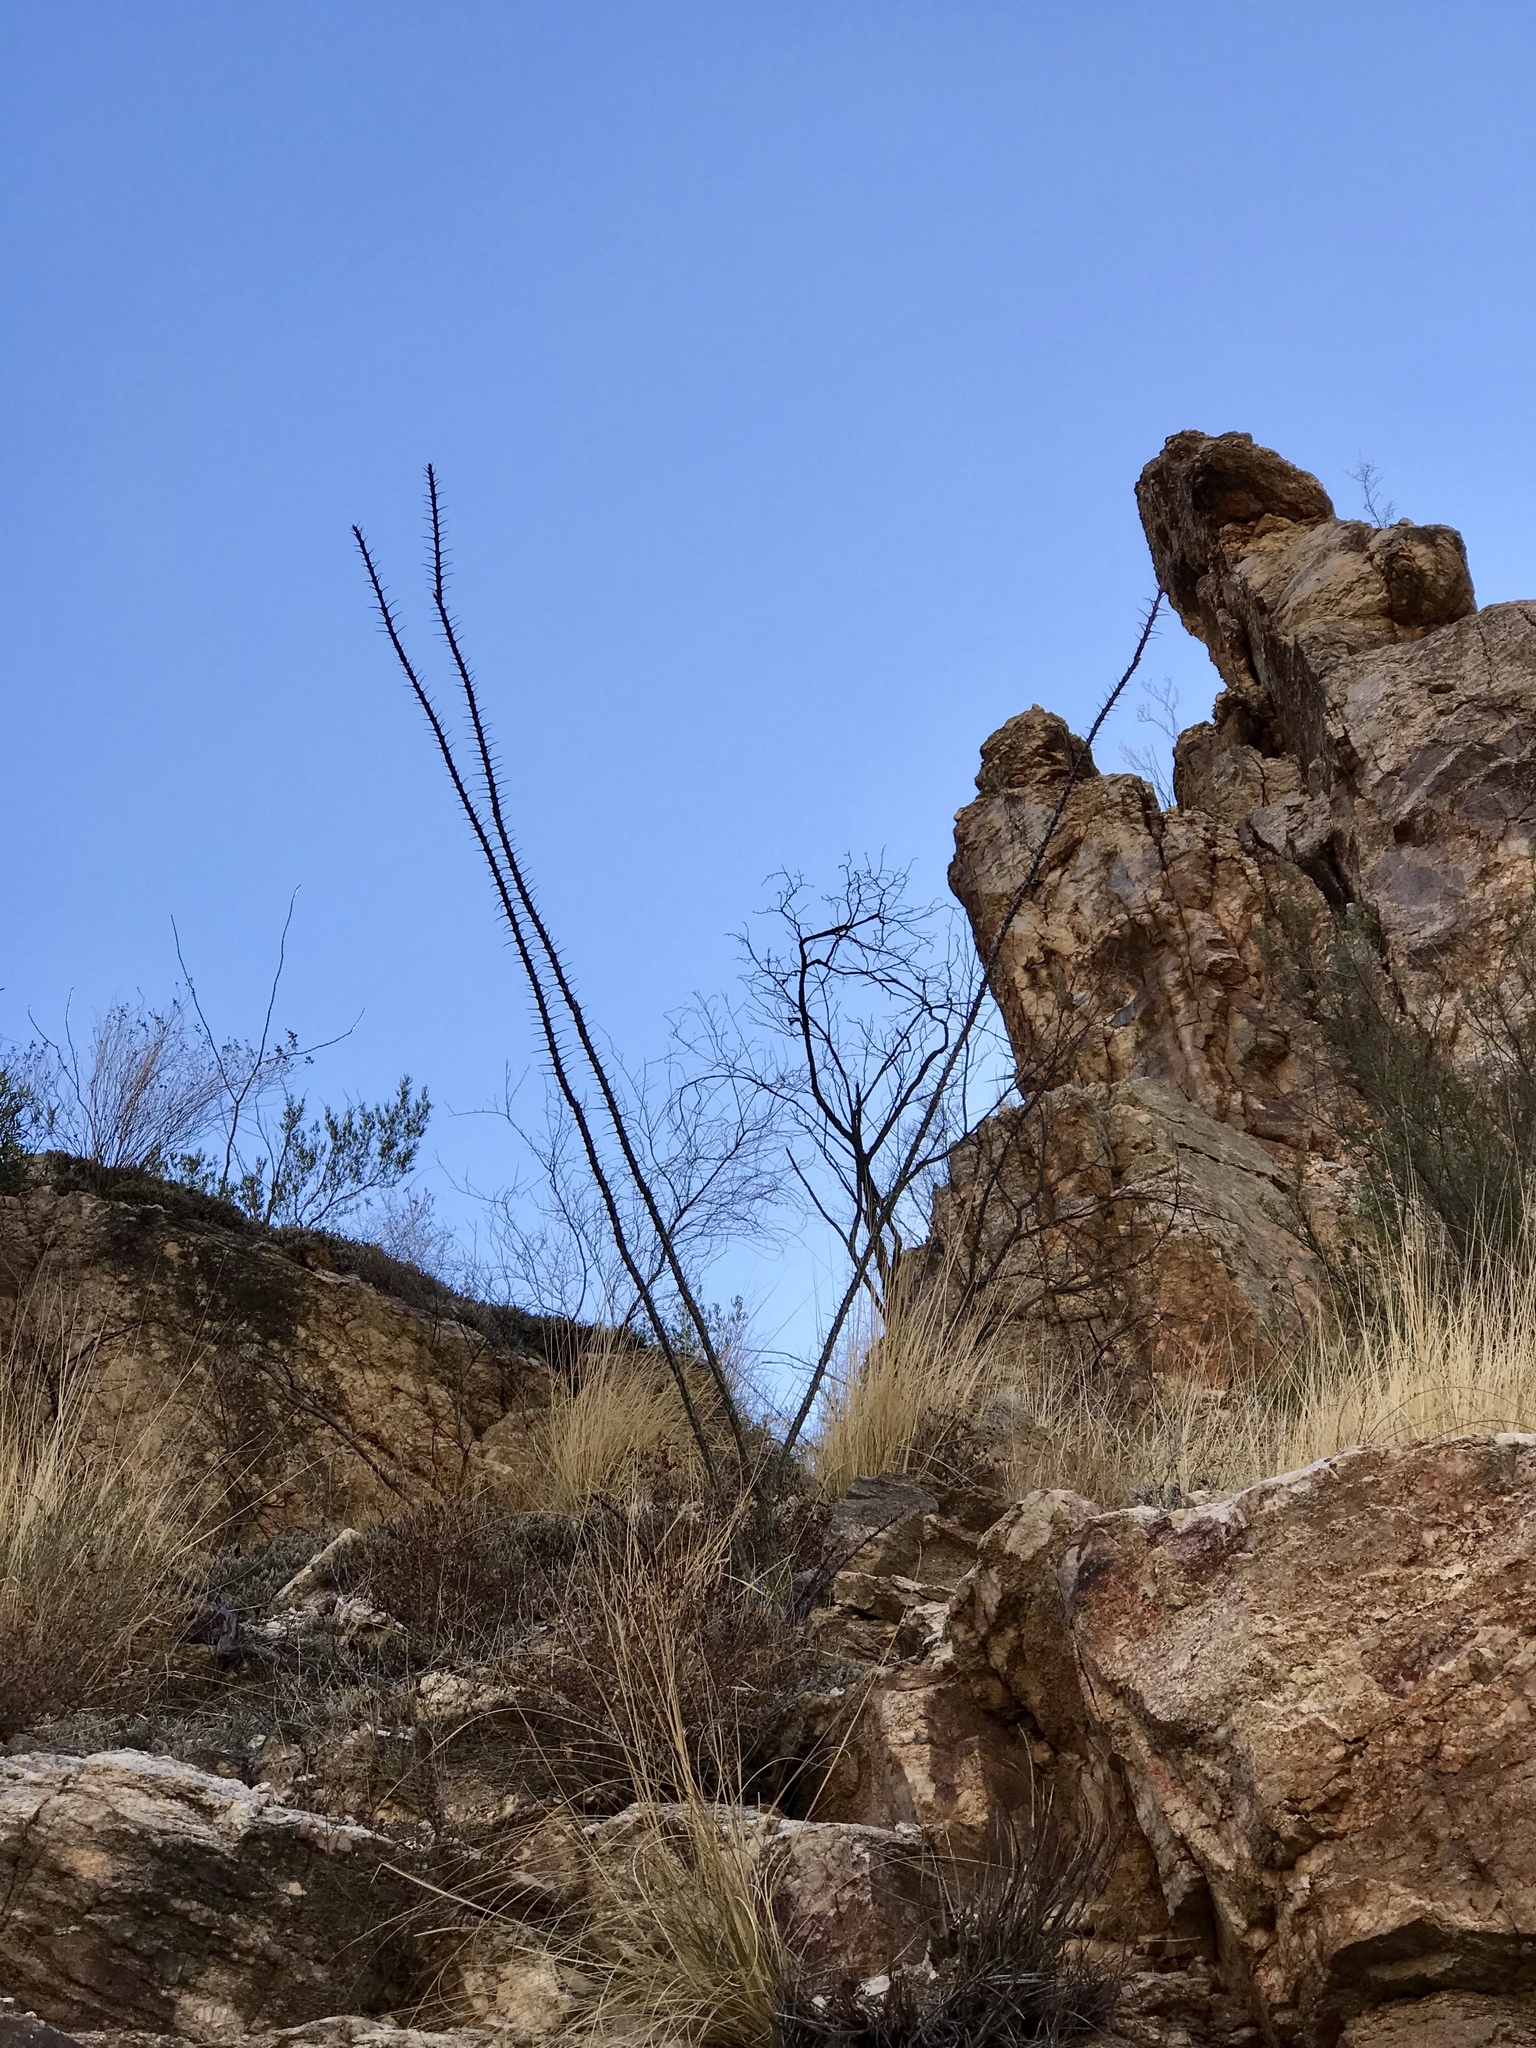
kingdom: Plantae
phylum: Tracheophyta
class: Magnoliopsida
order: Ericales
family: Fouquieriaceae
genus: Fouquieria
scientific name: Fouquieria splendens
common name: Vine-cactus
